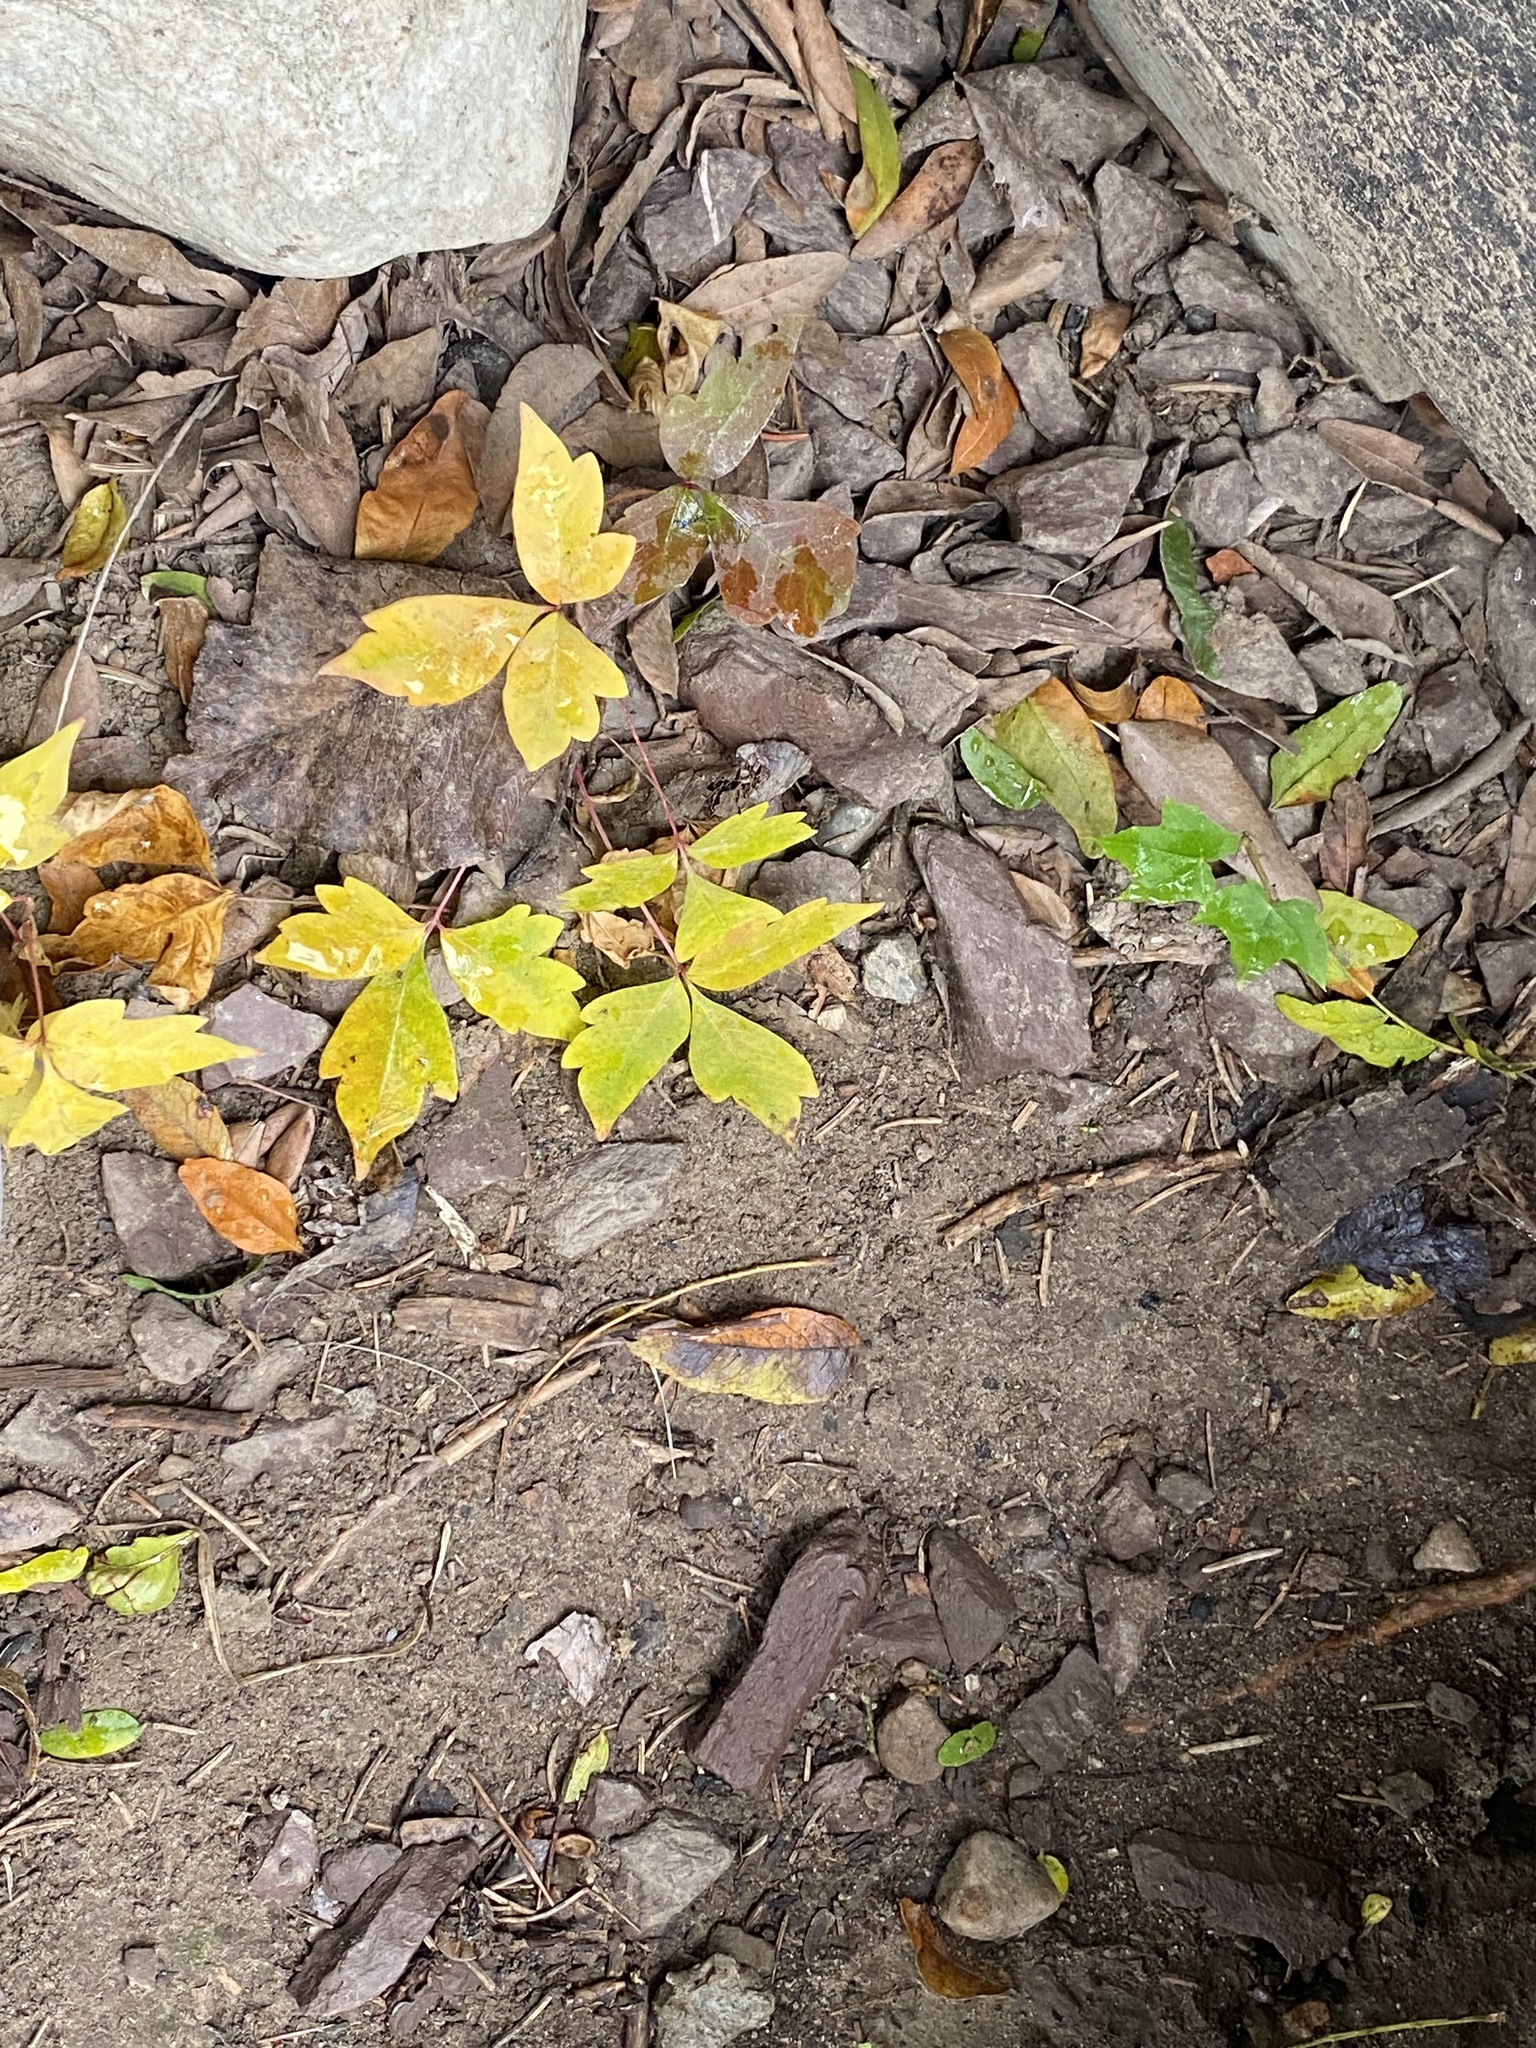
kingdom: Plantae
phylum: Tracheophyta
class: Magnoliopsida
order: Sapindales
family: Anacardiaceae
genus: Toxicodendron
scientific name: Toxicodendron radicans
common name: Poison ivy
